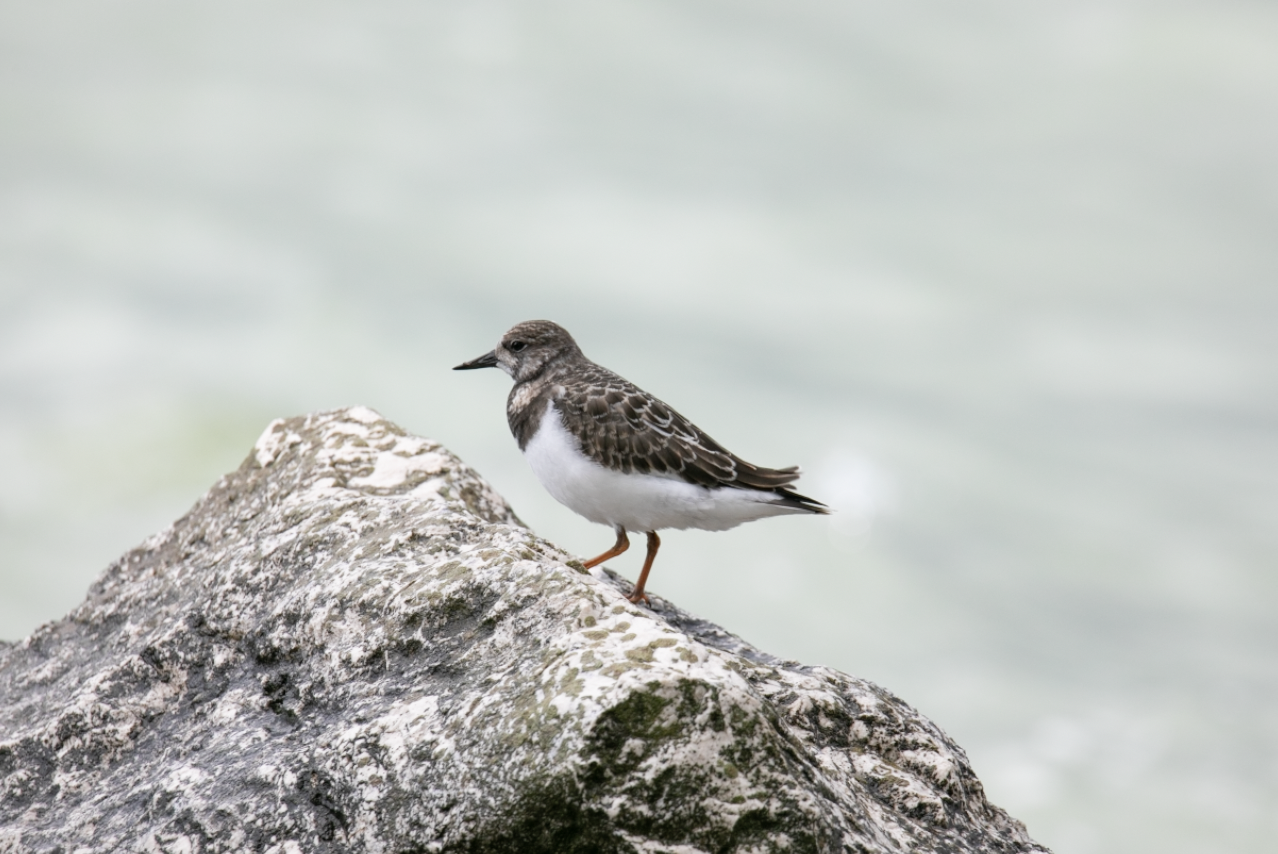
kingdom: Animalia
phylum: Chordata
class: Aves
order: Charadriiformes
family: Scolopacidae
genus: Arenaria
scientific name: Arenaria interpres
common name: Ruddy turnstone
